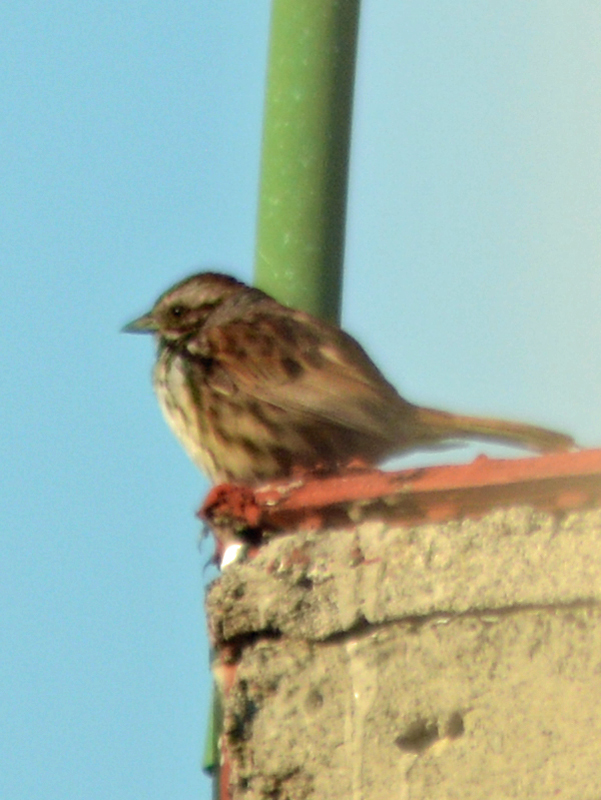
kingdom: Animalia
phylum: Chordata
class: Aves
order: Passeriformes
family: Passerellidae
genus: Melospiza
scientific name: Melospiza melodia
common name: Song sparrow
